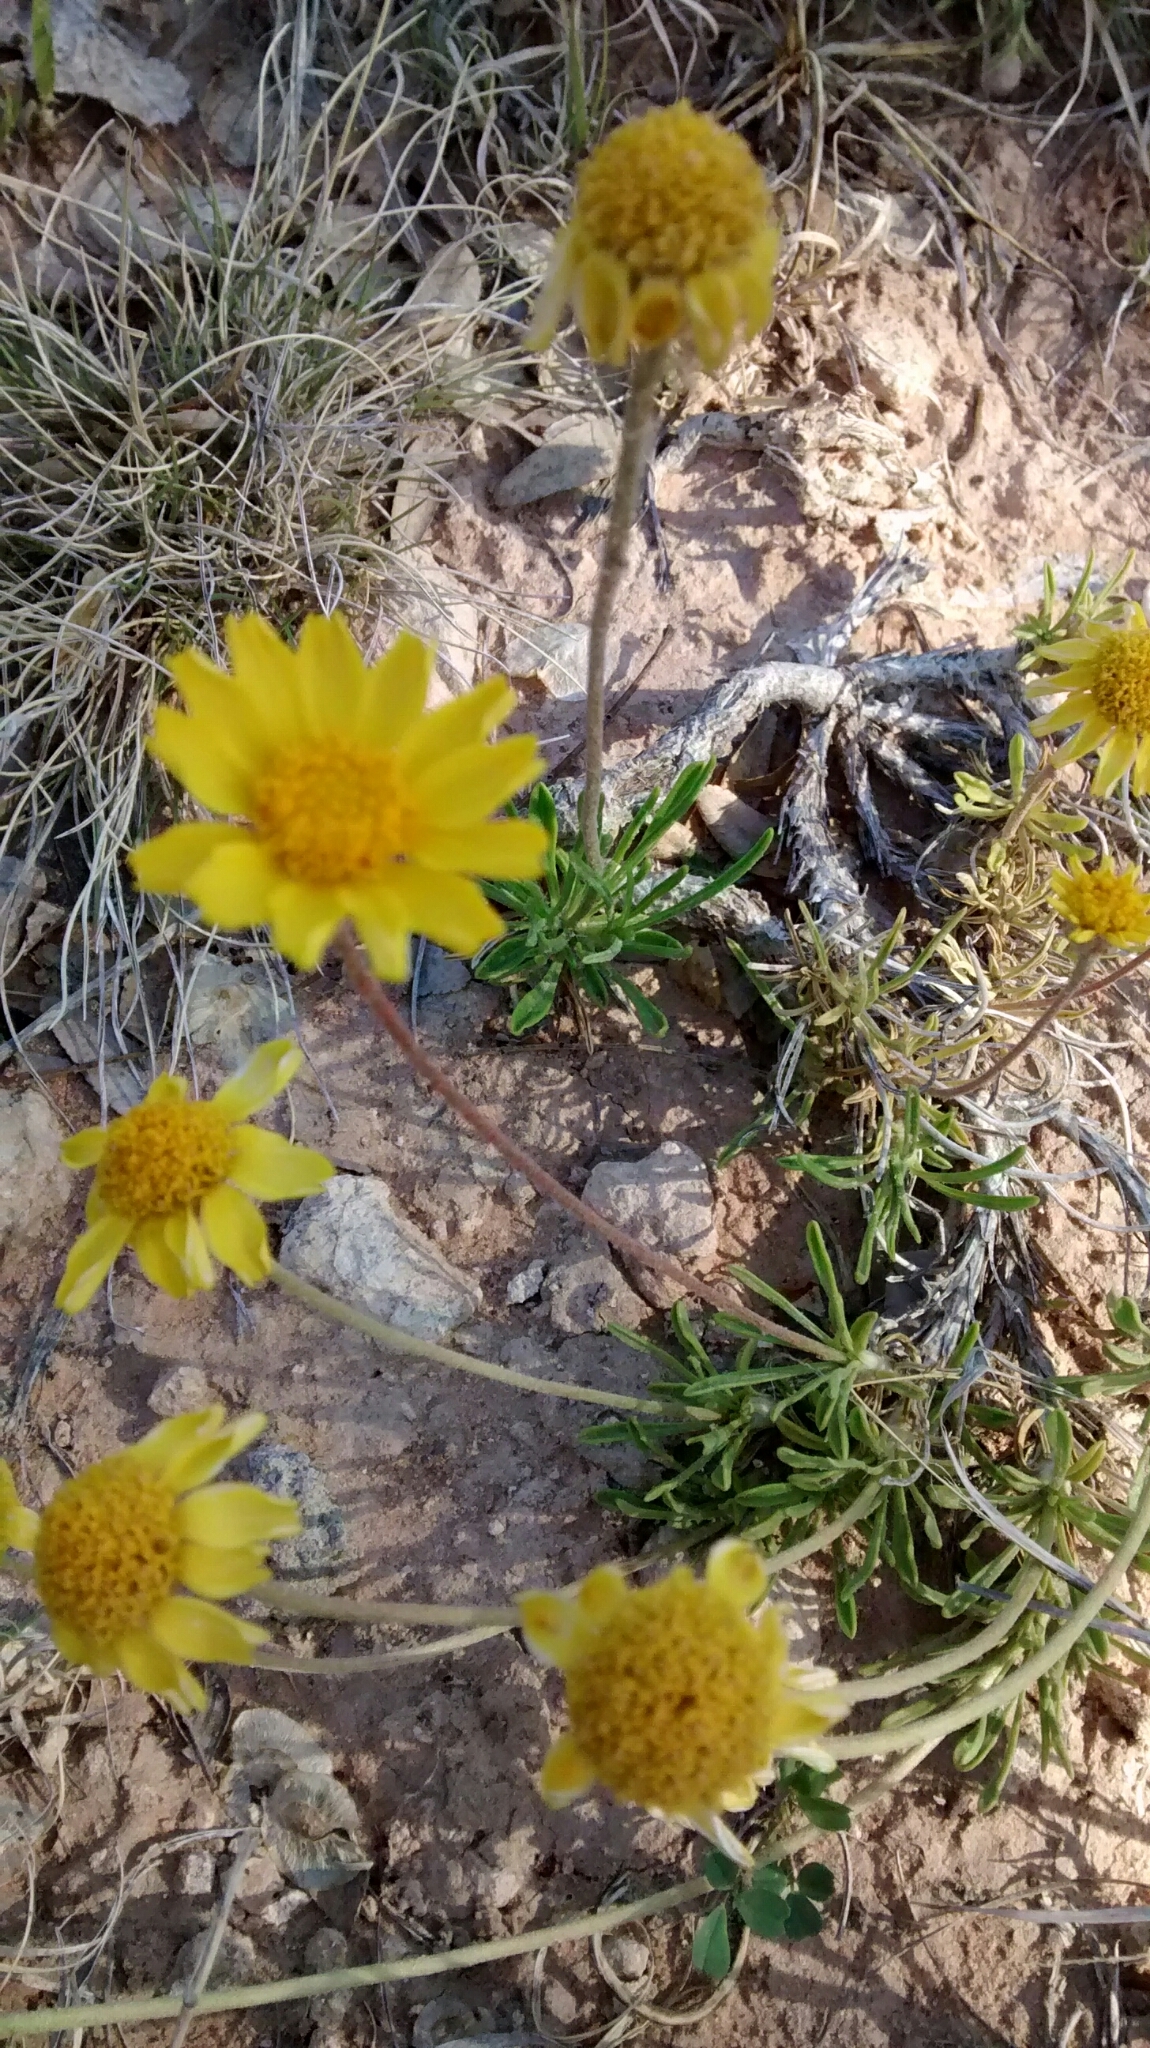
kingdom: Plantae
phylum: Tracheophyta
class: Magnoliopsida
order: Asterales
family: Asteraceae
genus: Tetraneuris
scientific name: Tetraneuris scaposa
